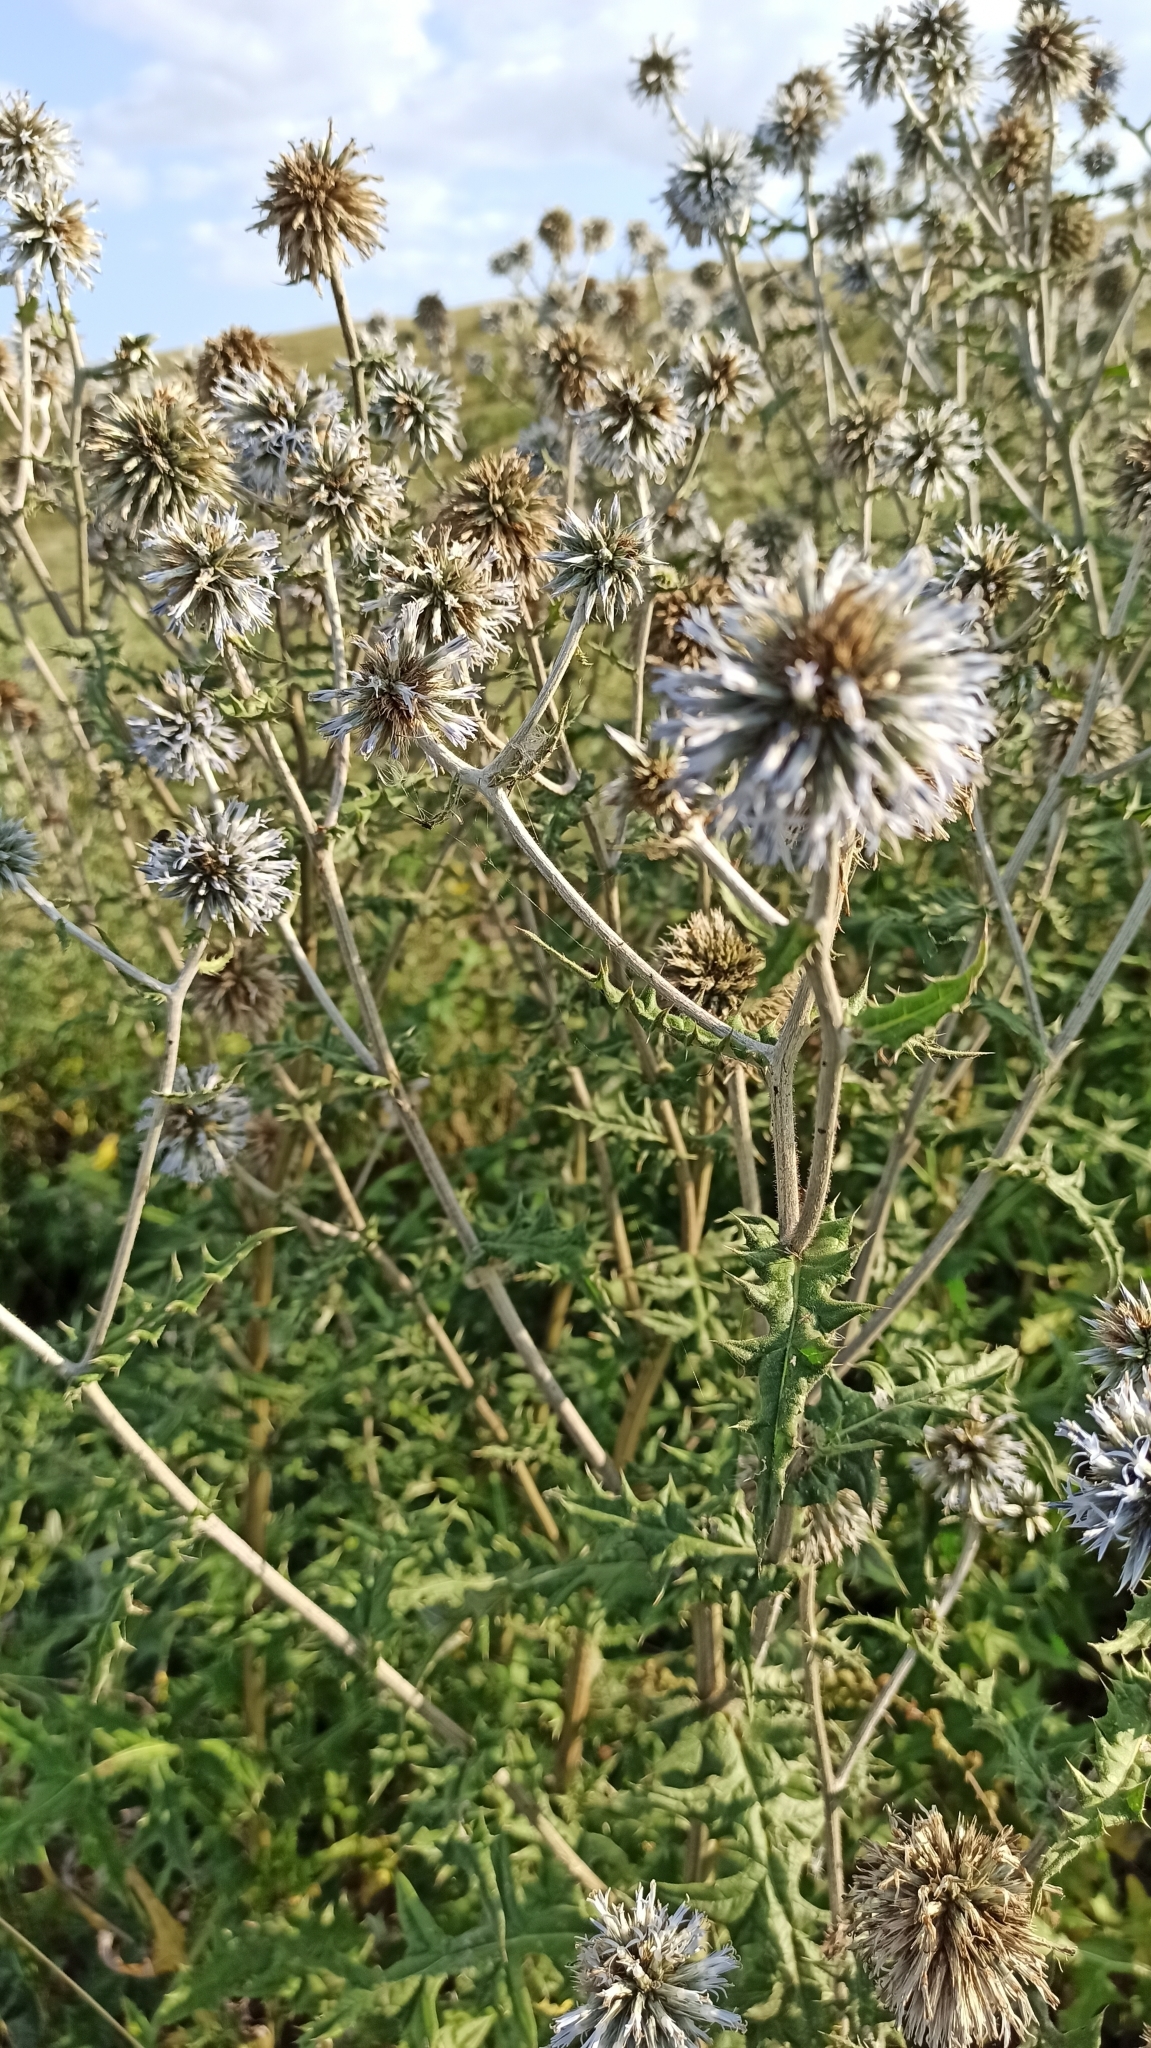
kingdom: Plantae
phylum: Tracheophyta
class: Magnoliopsida
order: Asterales
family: Asteraceae
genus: Echinops
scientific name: Echinops sphaerocephalus
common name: Glandular globe-thistle
